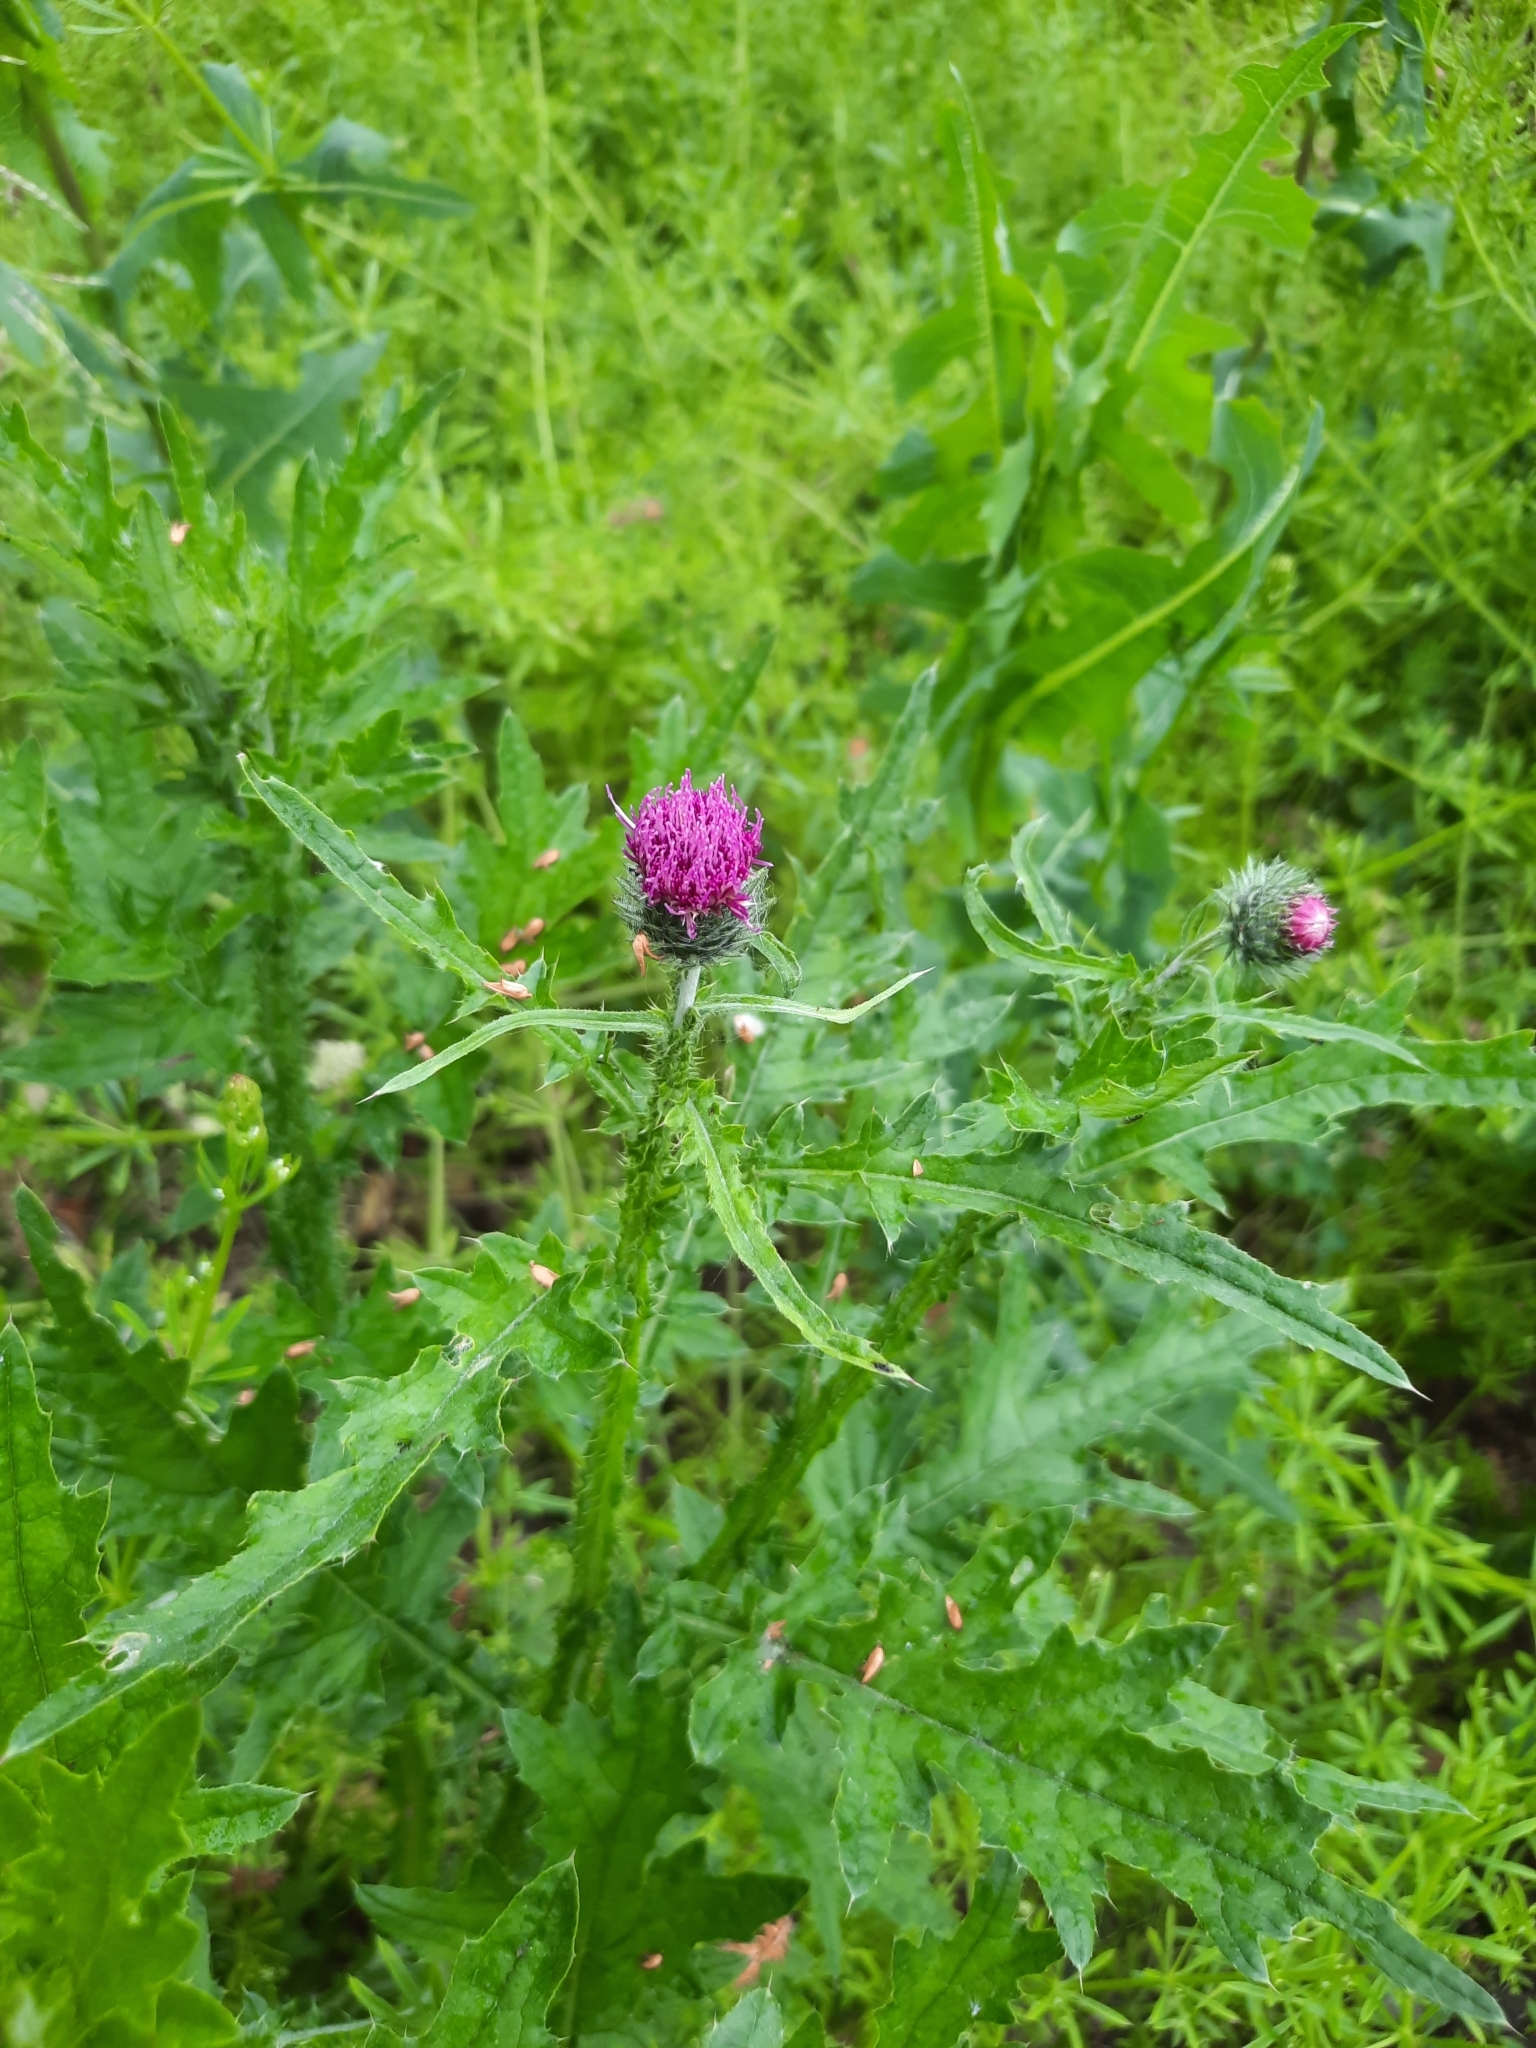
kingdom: Plantae
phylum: Tracheophyta
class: Magnoliopsida
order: Asterales
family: Asteraceae
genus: Carduus
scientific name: Carduus crispus
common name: Welted thistle
